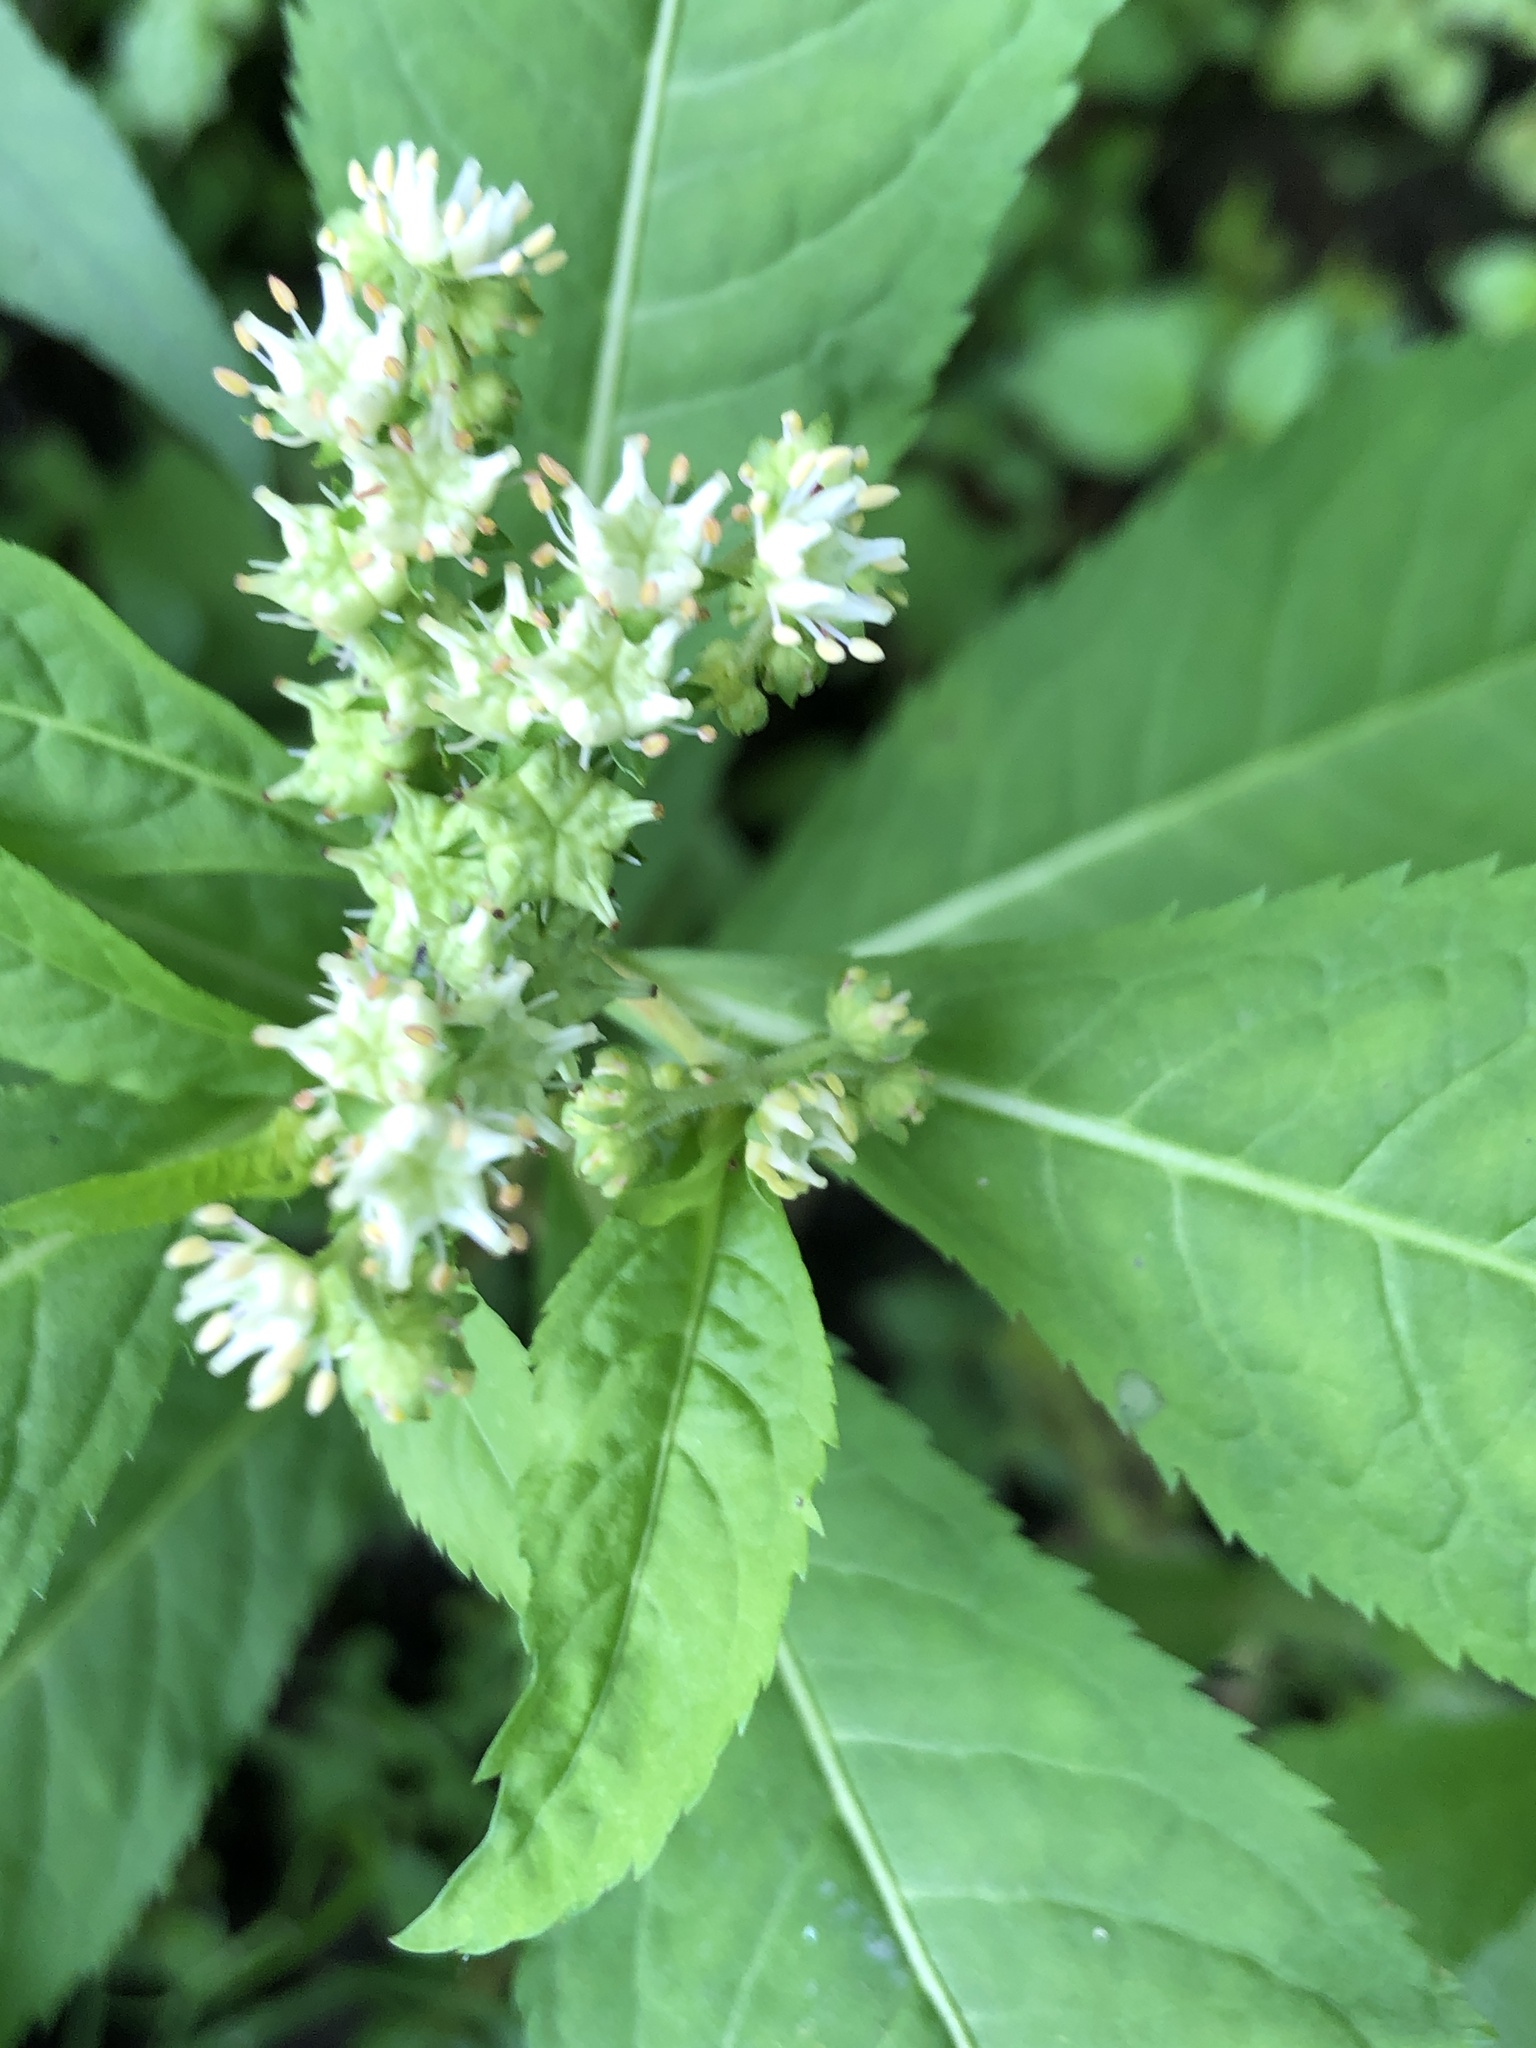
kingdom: Plantae
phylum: Tracheophyta
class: Magnoliopsida
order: Saxifragales
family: Penthoraceae
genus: Penthorum
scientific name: Penthorum sedoides
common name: Ditch stonecrop
